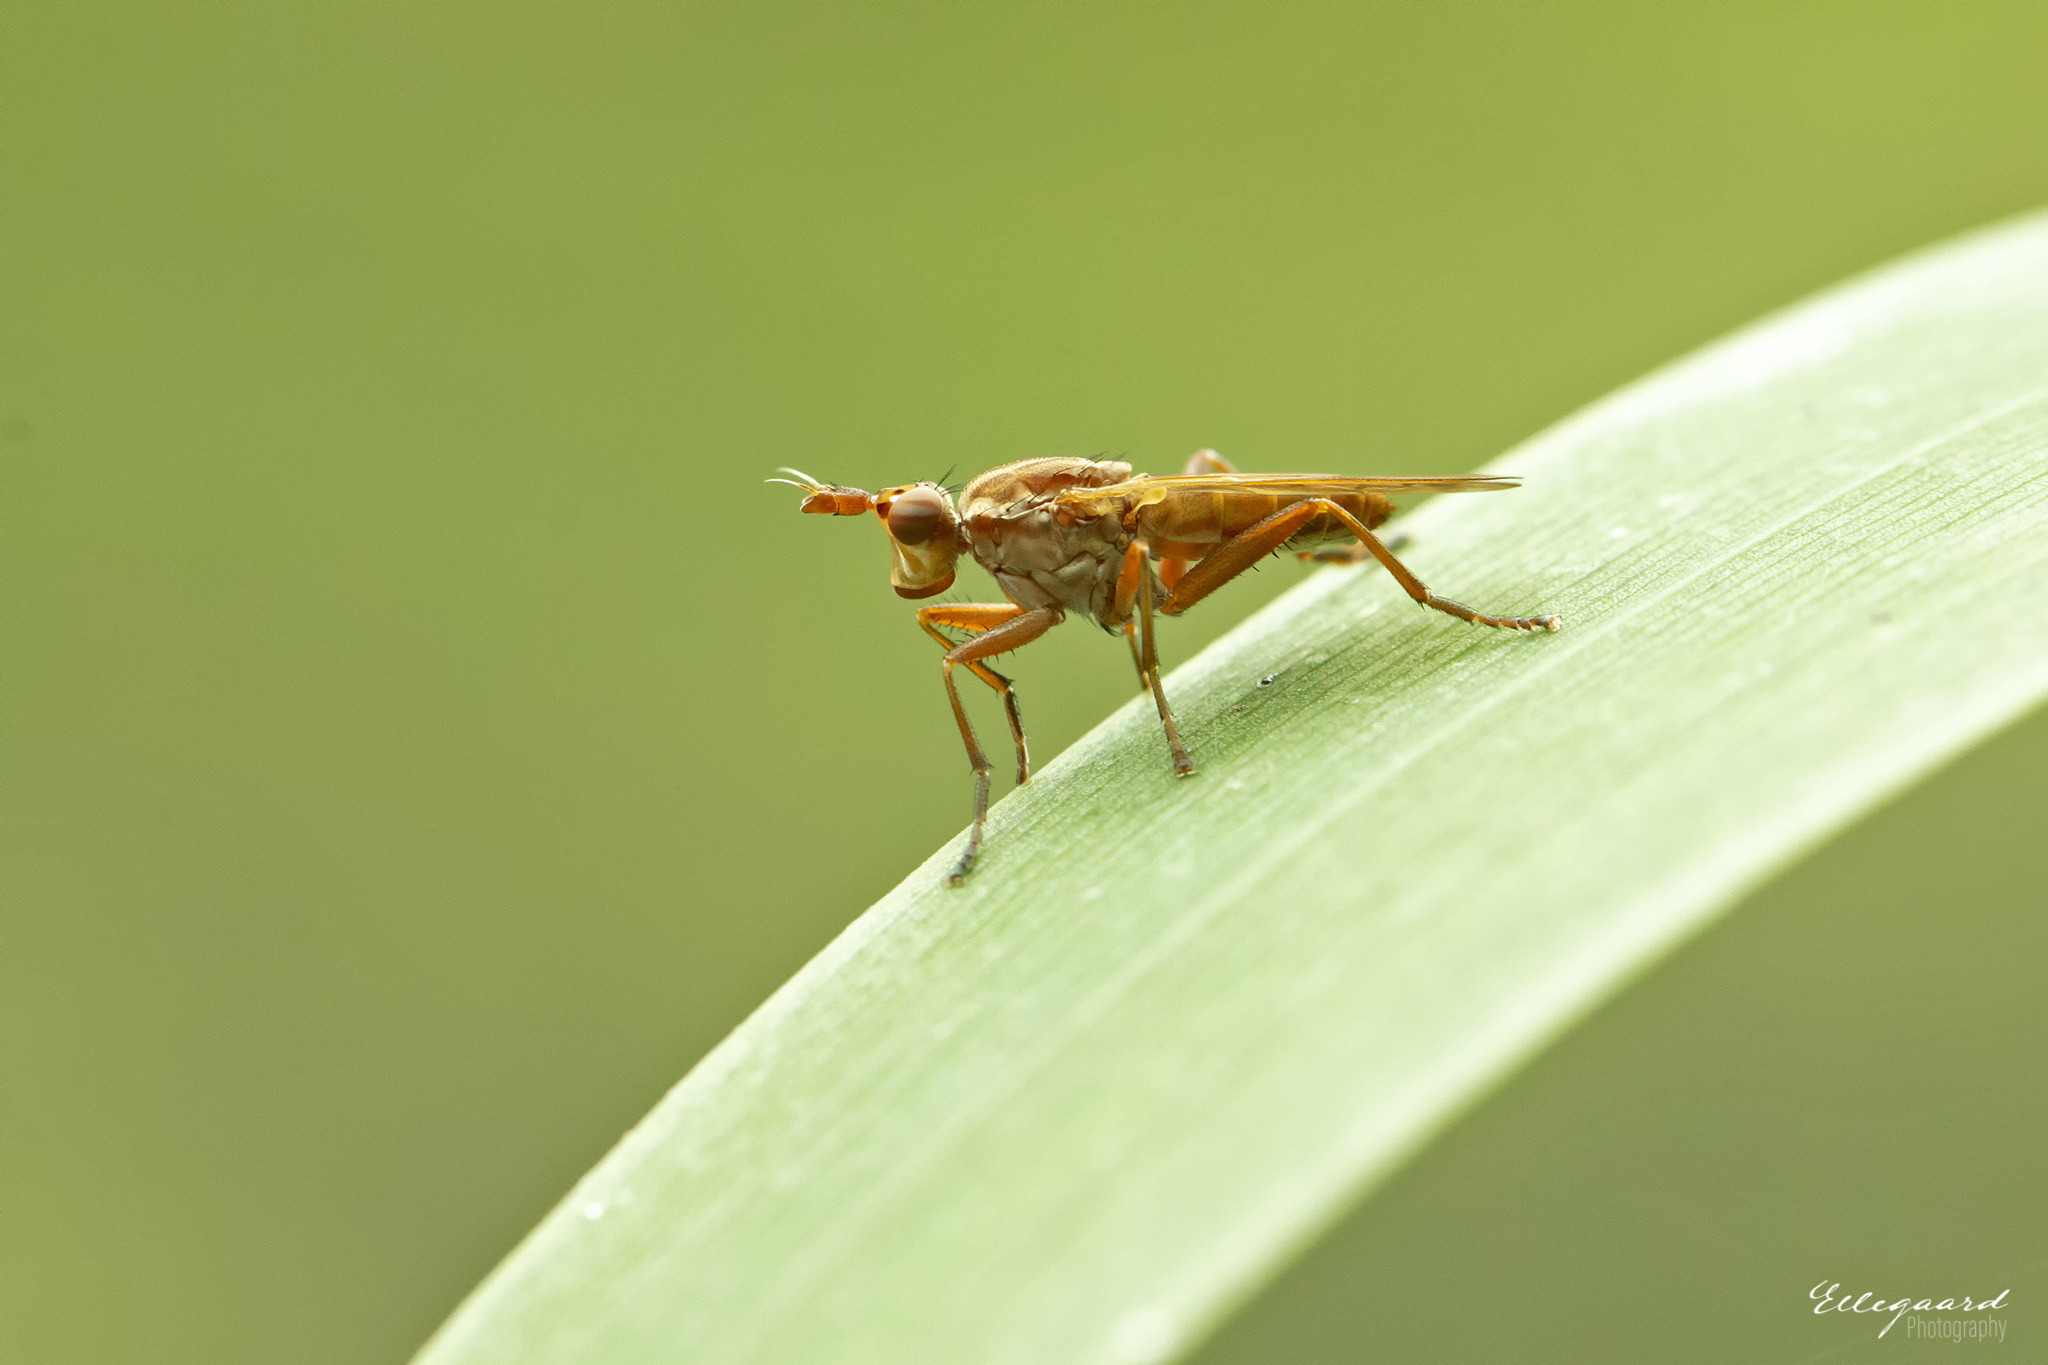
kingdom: Animalia
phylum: Arthropoda
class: Insecta
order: Diptera
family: Sciomyzidae
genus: Elgiva
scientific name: Elgiva solicita
